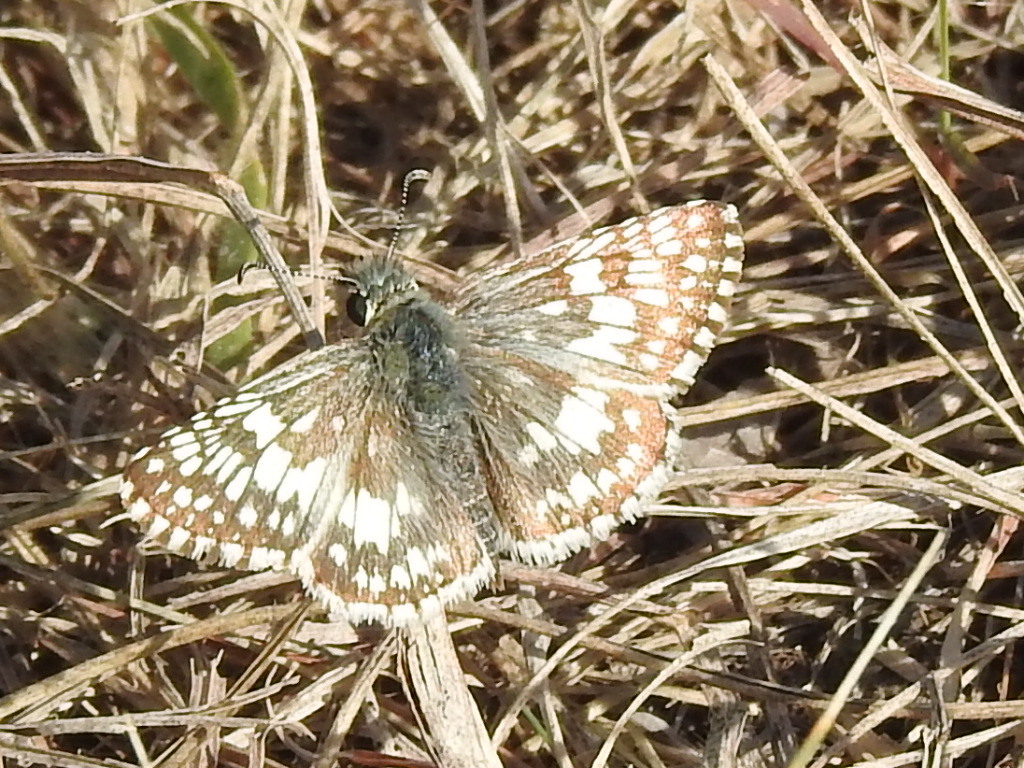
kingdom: Animalia
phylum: Arthropoda
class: Insecta
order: Lepidoptera
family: Hesperiidae
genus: Burnsius
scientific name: Burnsius
